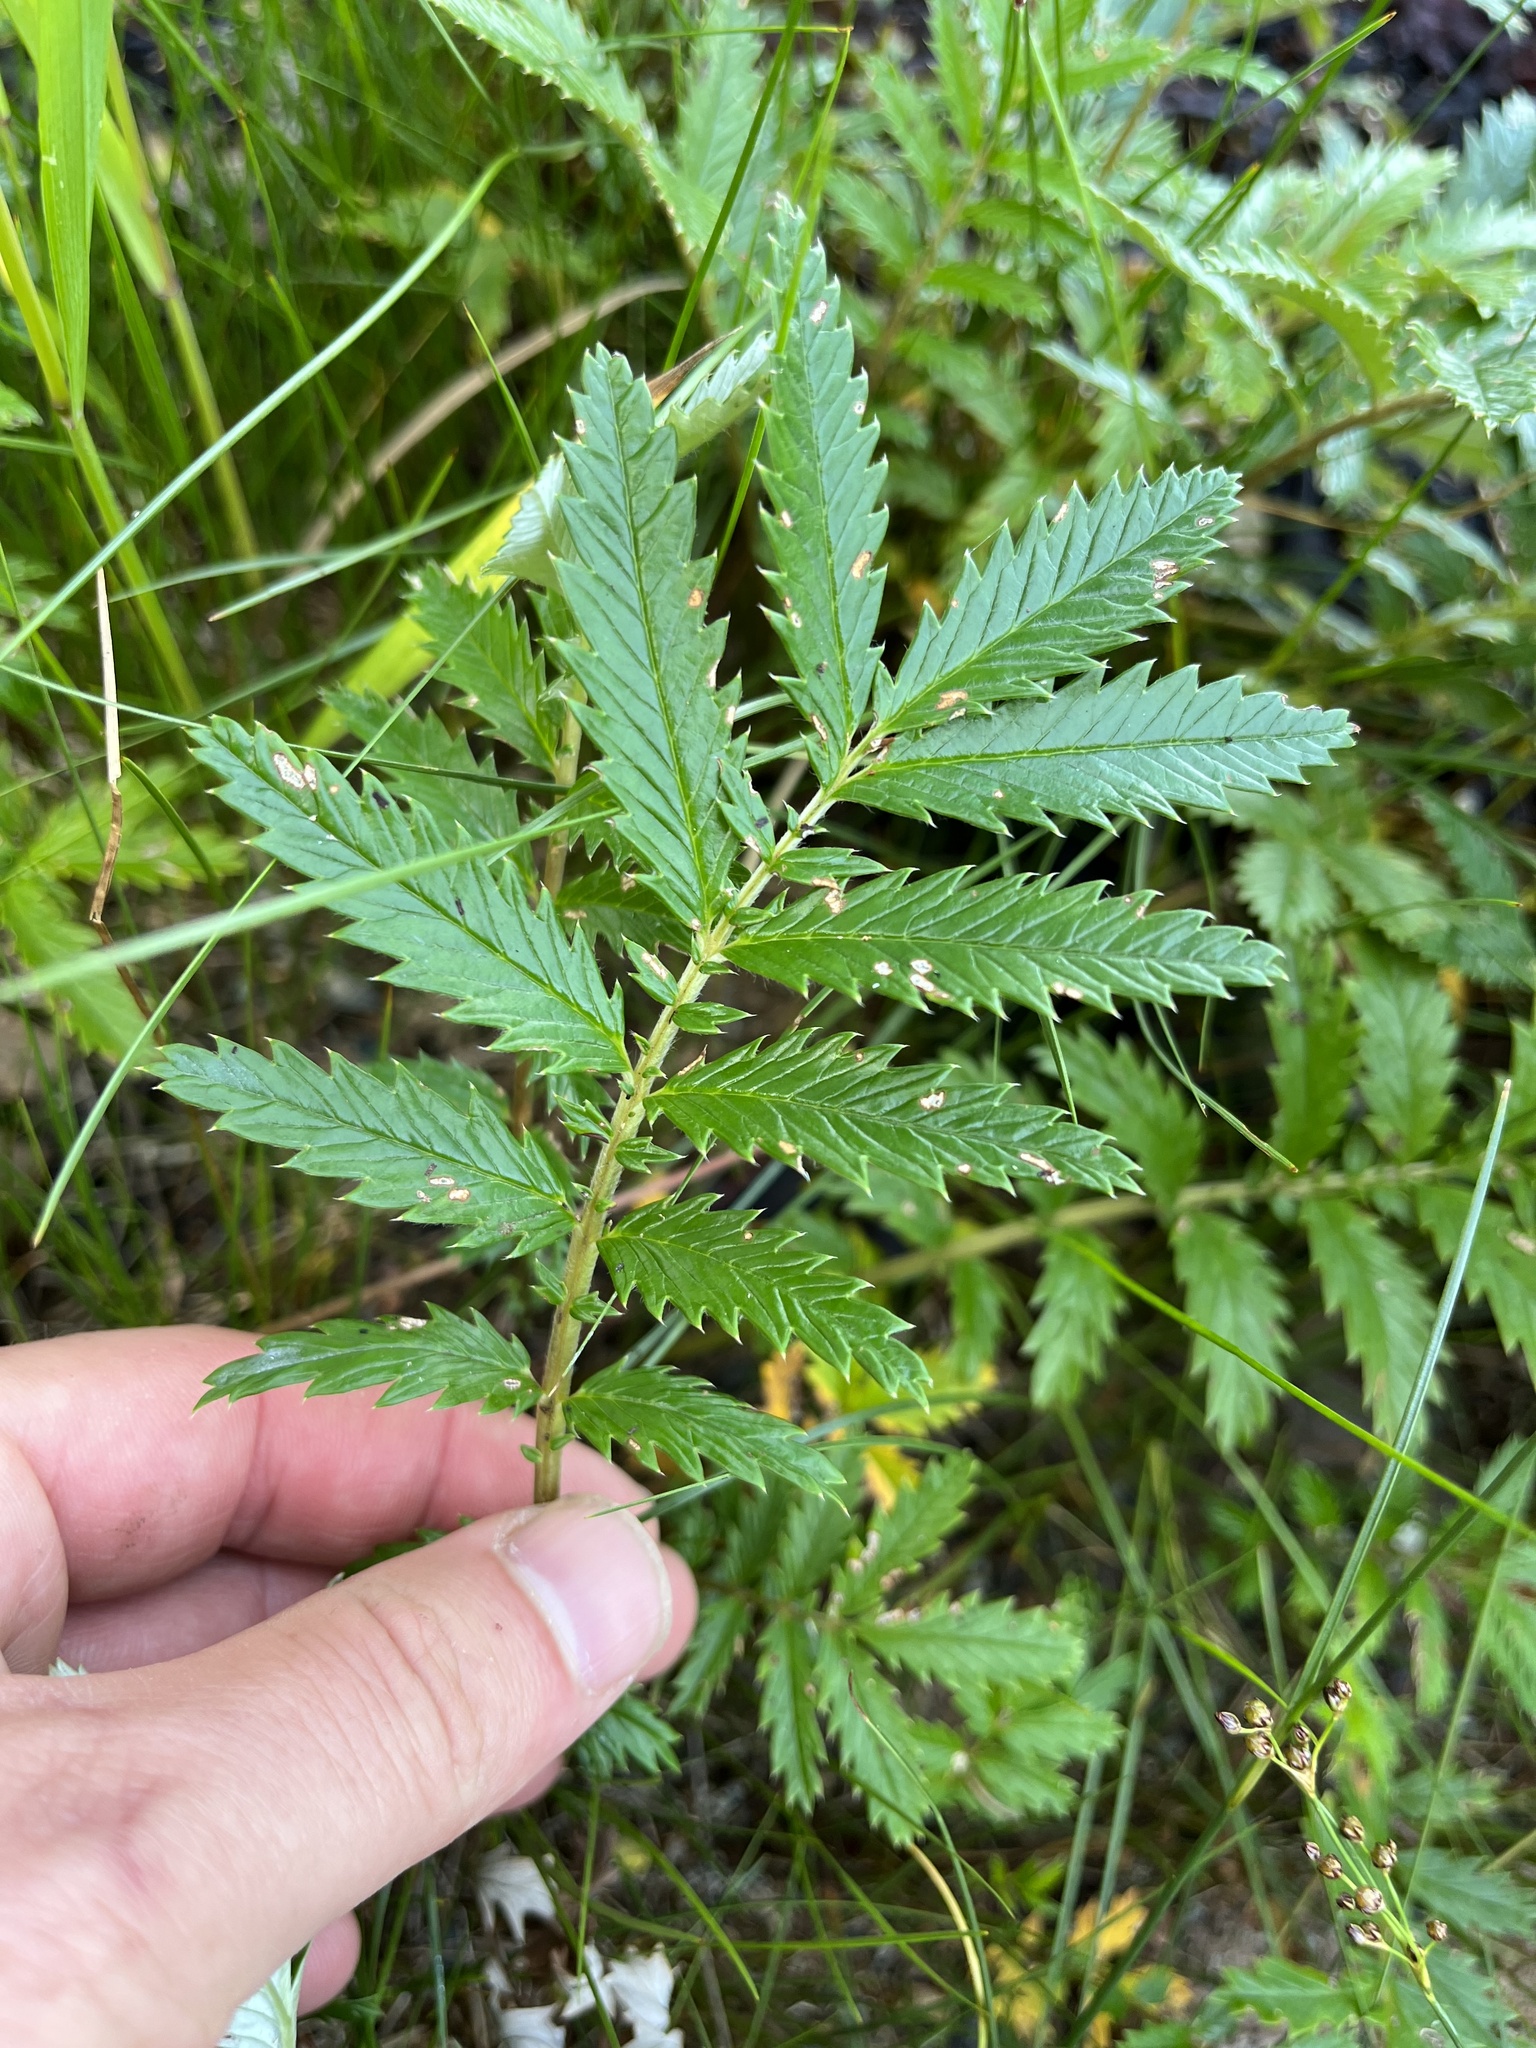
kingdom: Plantae
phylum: Tracheophyta
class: Magnoliopsida
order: Rosales
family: Rosaceae
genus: Argentina
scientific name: Argentina anserina
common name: Common silverweed
